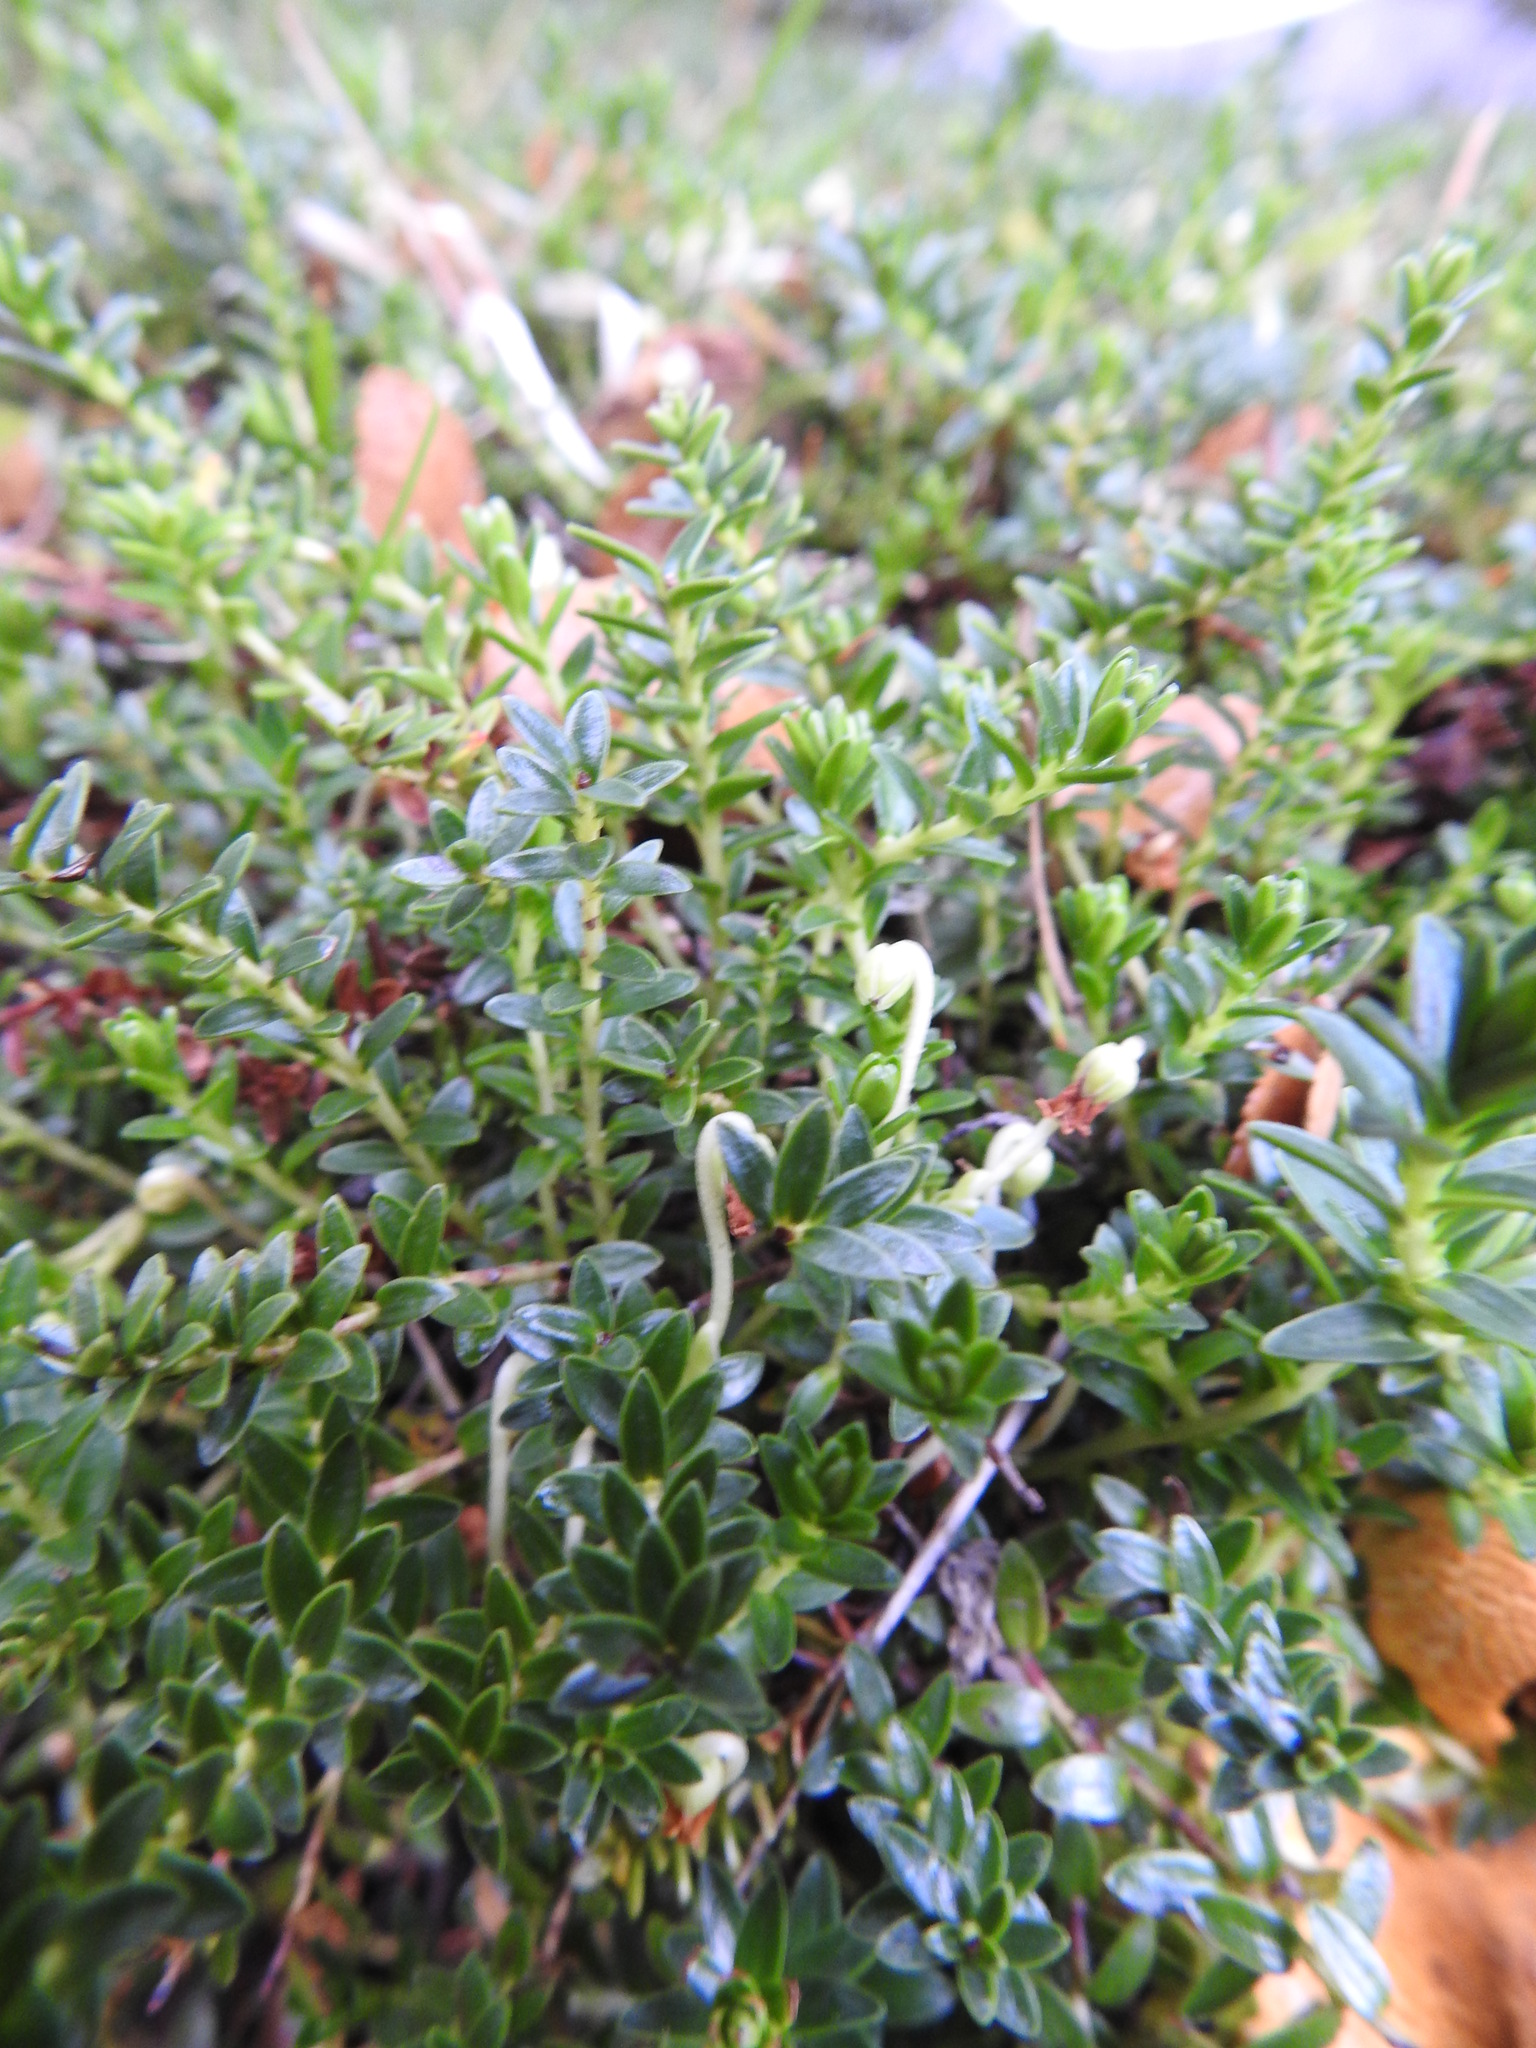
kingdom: Plantae
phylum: Tracheophyta
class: Magnoliopsida
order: Ericales
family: Ericaceae
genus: Gaultheria
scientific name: Gaultheria pumila
